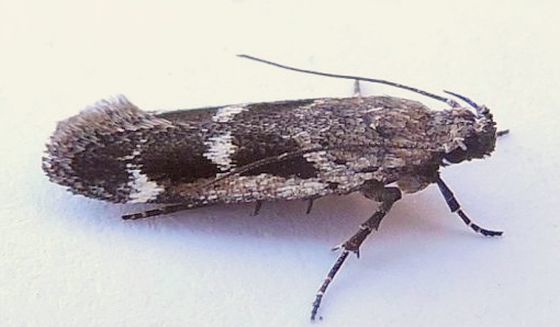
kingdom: Animalia
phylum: Arthropoda
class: Insecta
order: Lepidoptera
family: Gelechiidae
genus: Filatima
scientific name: Filatima obidenna
